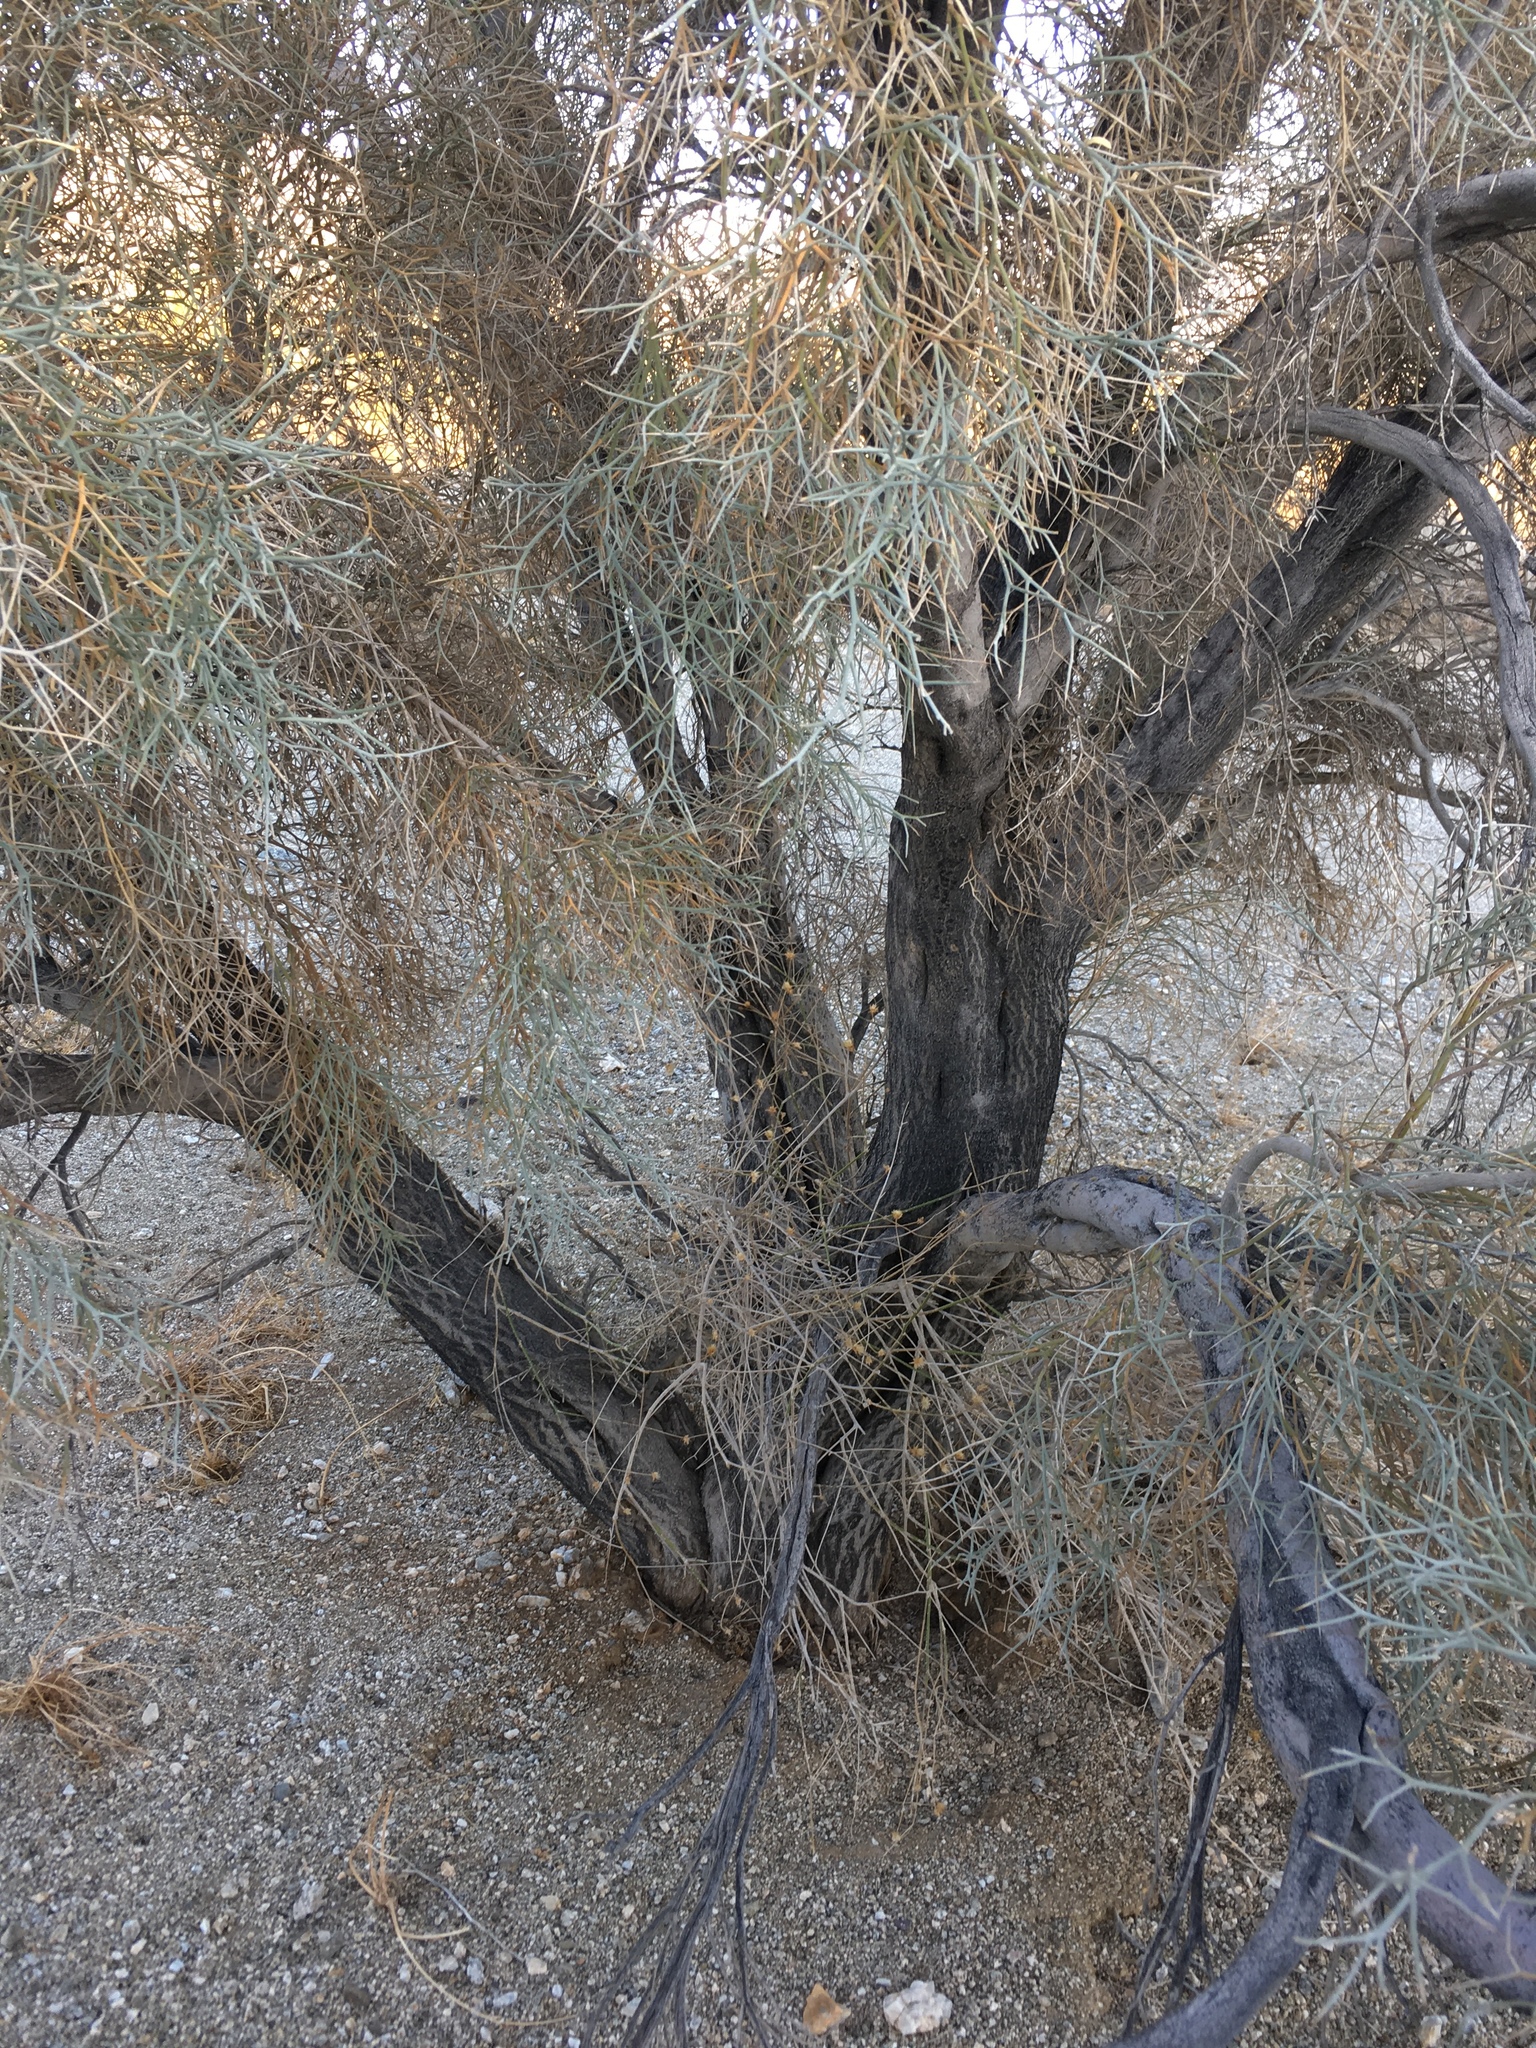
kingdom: Plantae
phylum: Tracheophyta
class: Magnoliopsida
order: Fabales
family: Fabaceae
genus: Psorothamnus
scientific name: Psorothamnus spinosus
